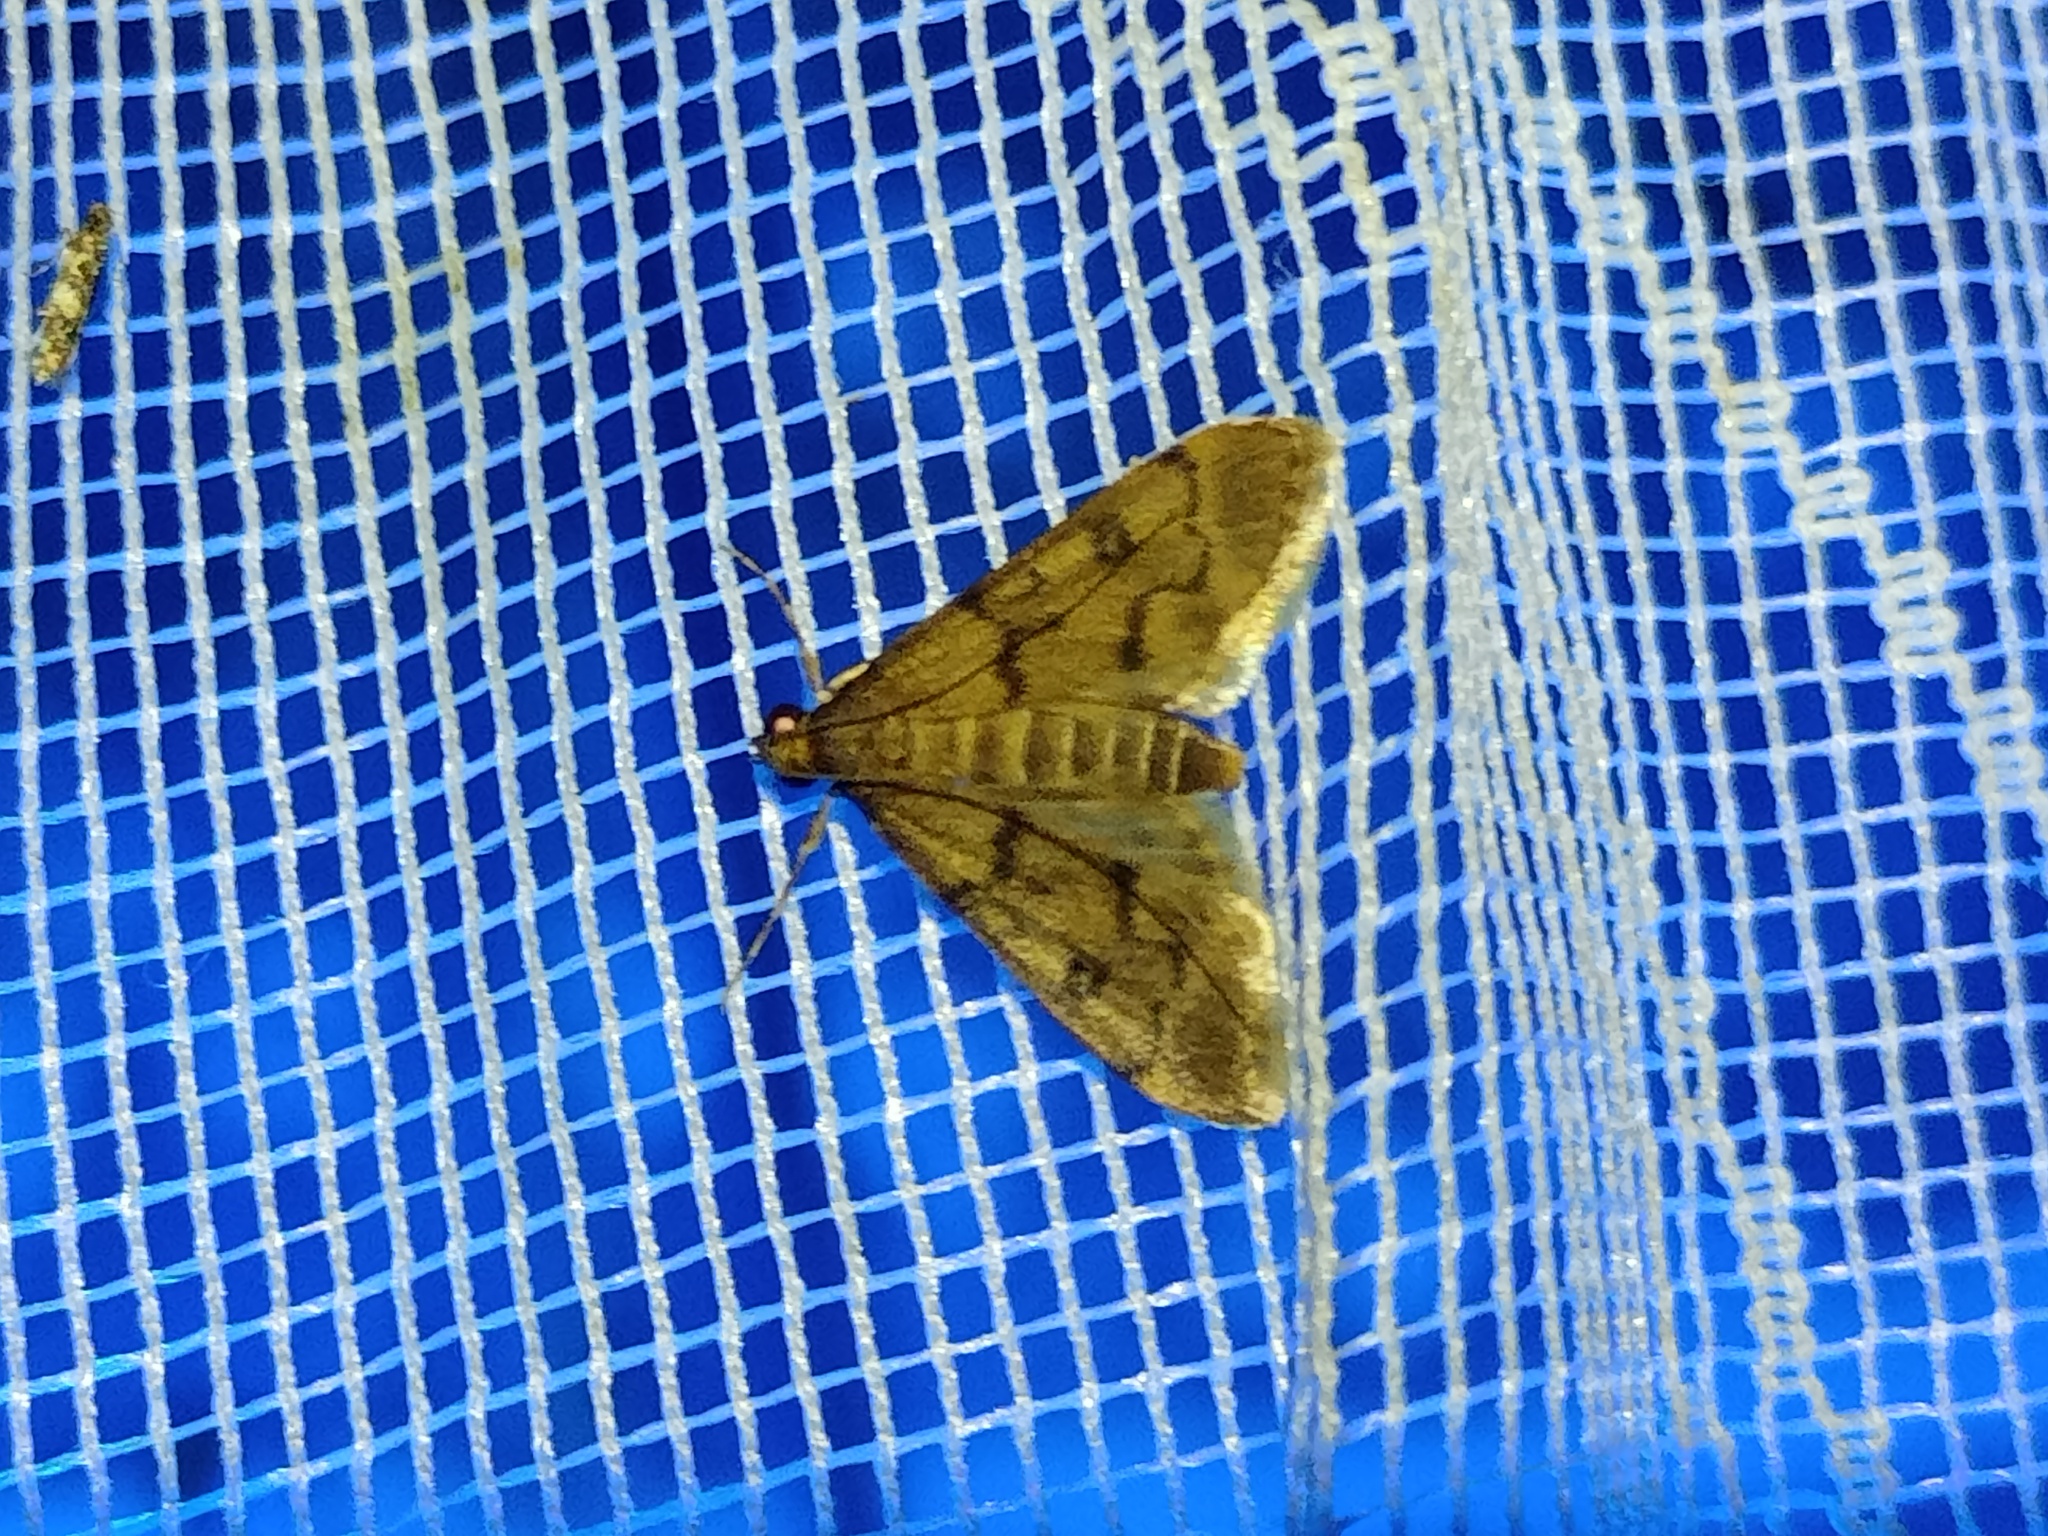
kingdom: Animalia
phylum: Arthropoda
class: Insecta
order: Lepidoptera
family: Crambidae
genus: Stenia
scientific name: Stenia daralis
